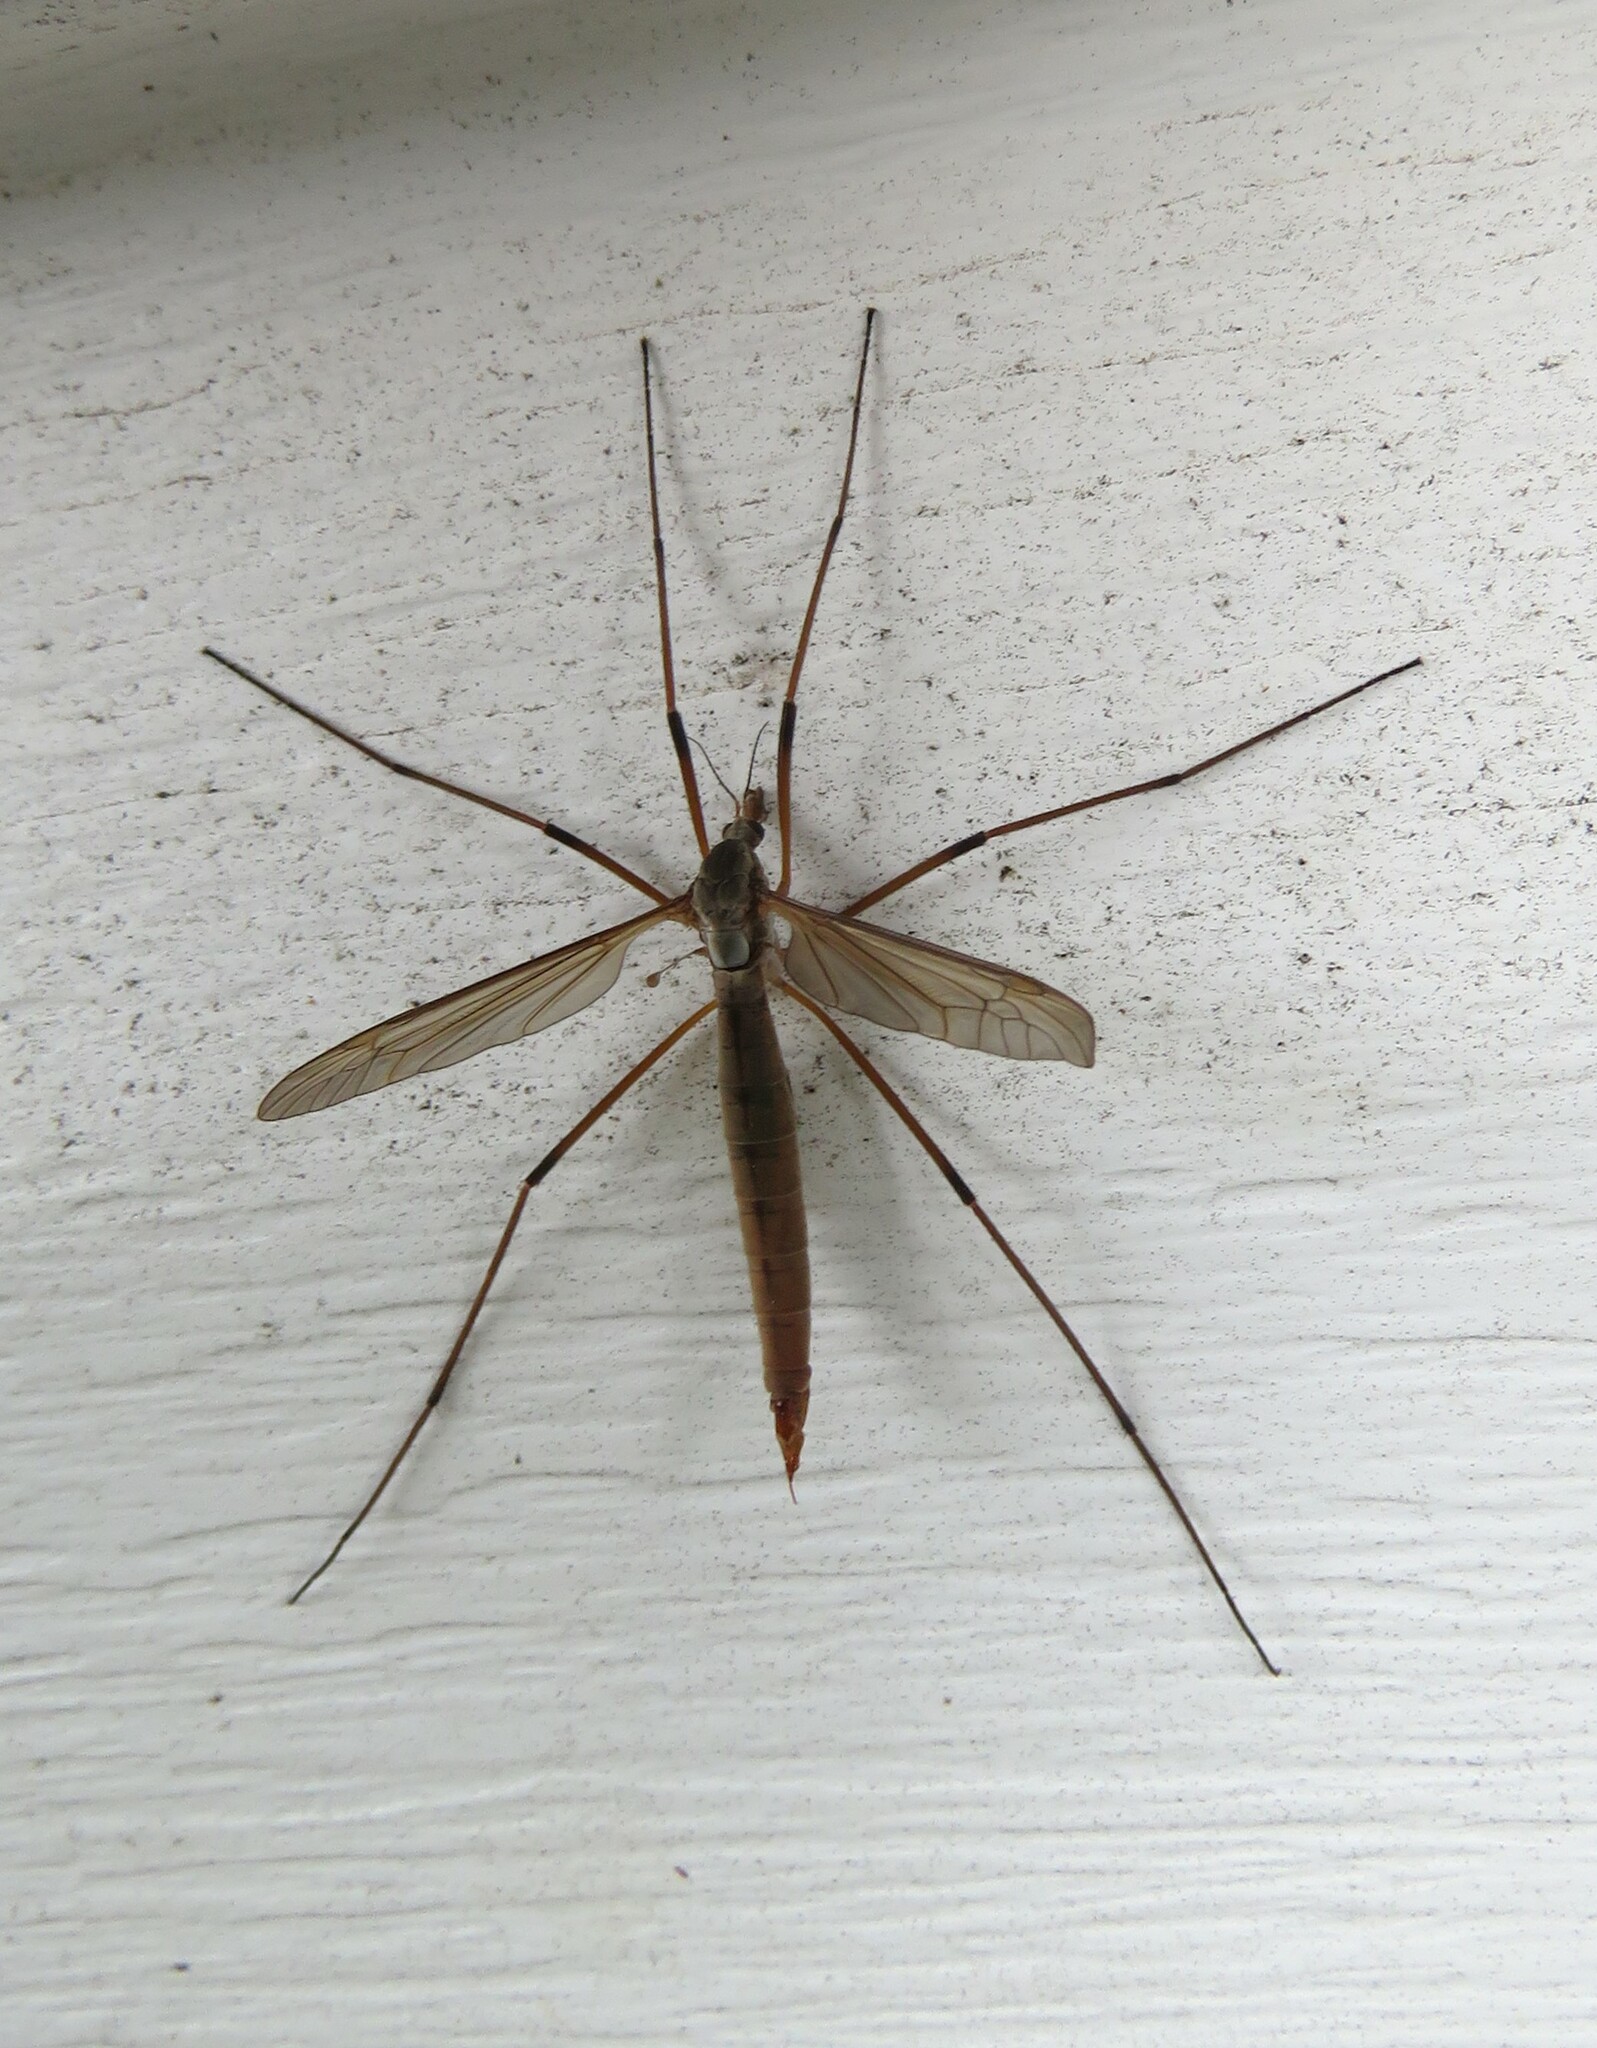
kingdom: Animalia
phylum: Arthropoda
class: Insecta
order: Diptera
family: Tipulidae
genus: Tipula
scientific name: Tipula paludosa
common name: European cranefly
